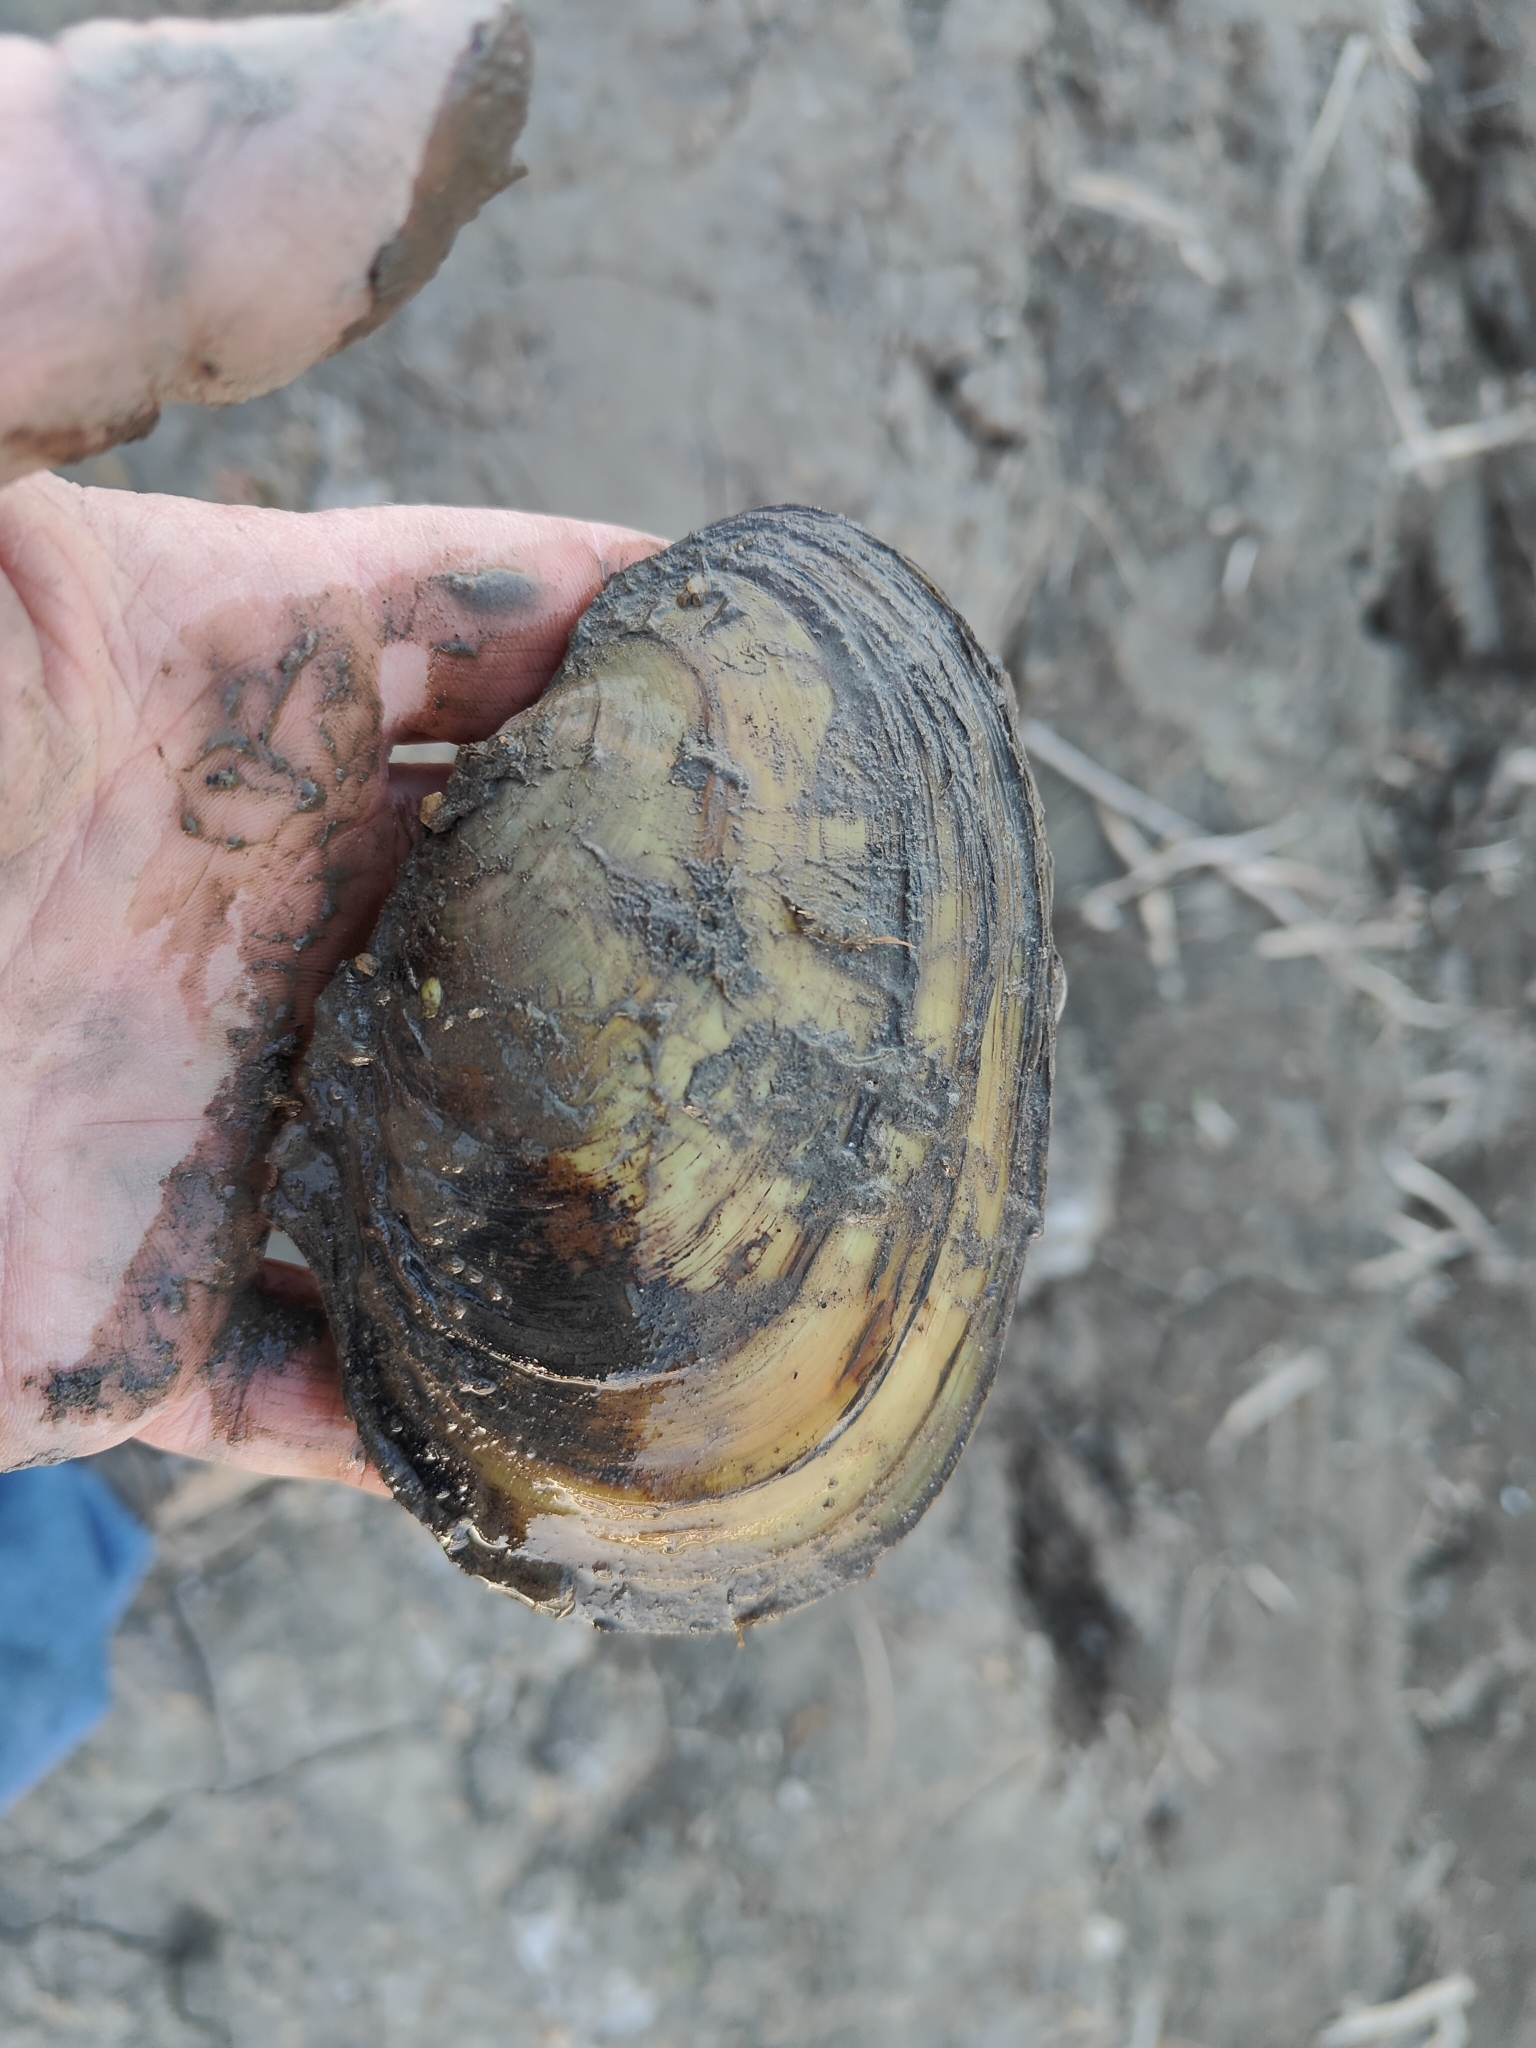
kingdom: Animalia
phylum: Mollusca
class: Bivalvia
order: Unionida
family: Unionidae
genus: Potamilus
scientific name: Potamilus fragilis
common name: Fragile papershell
